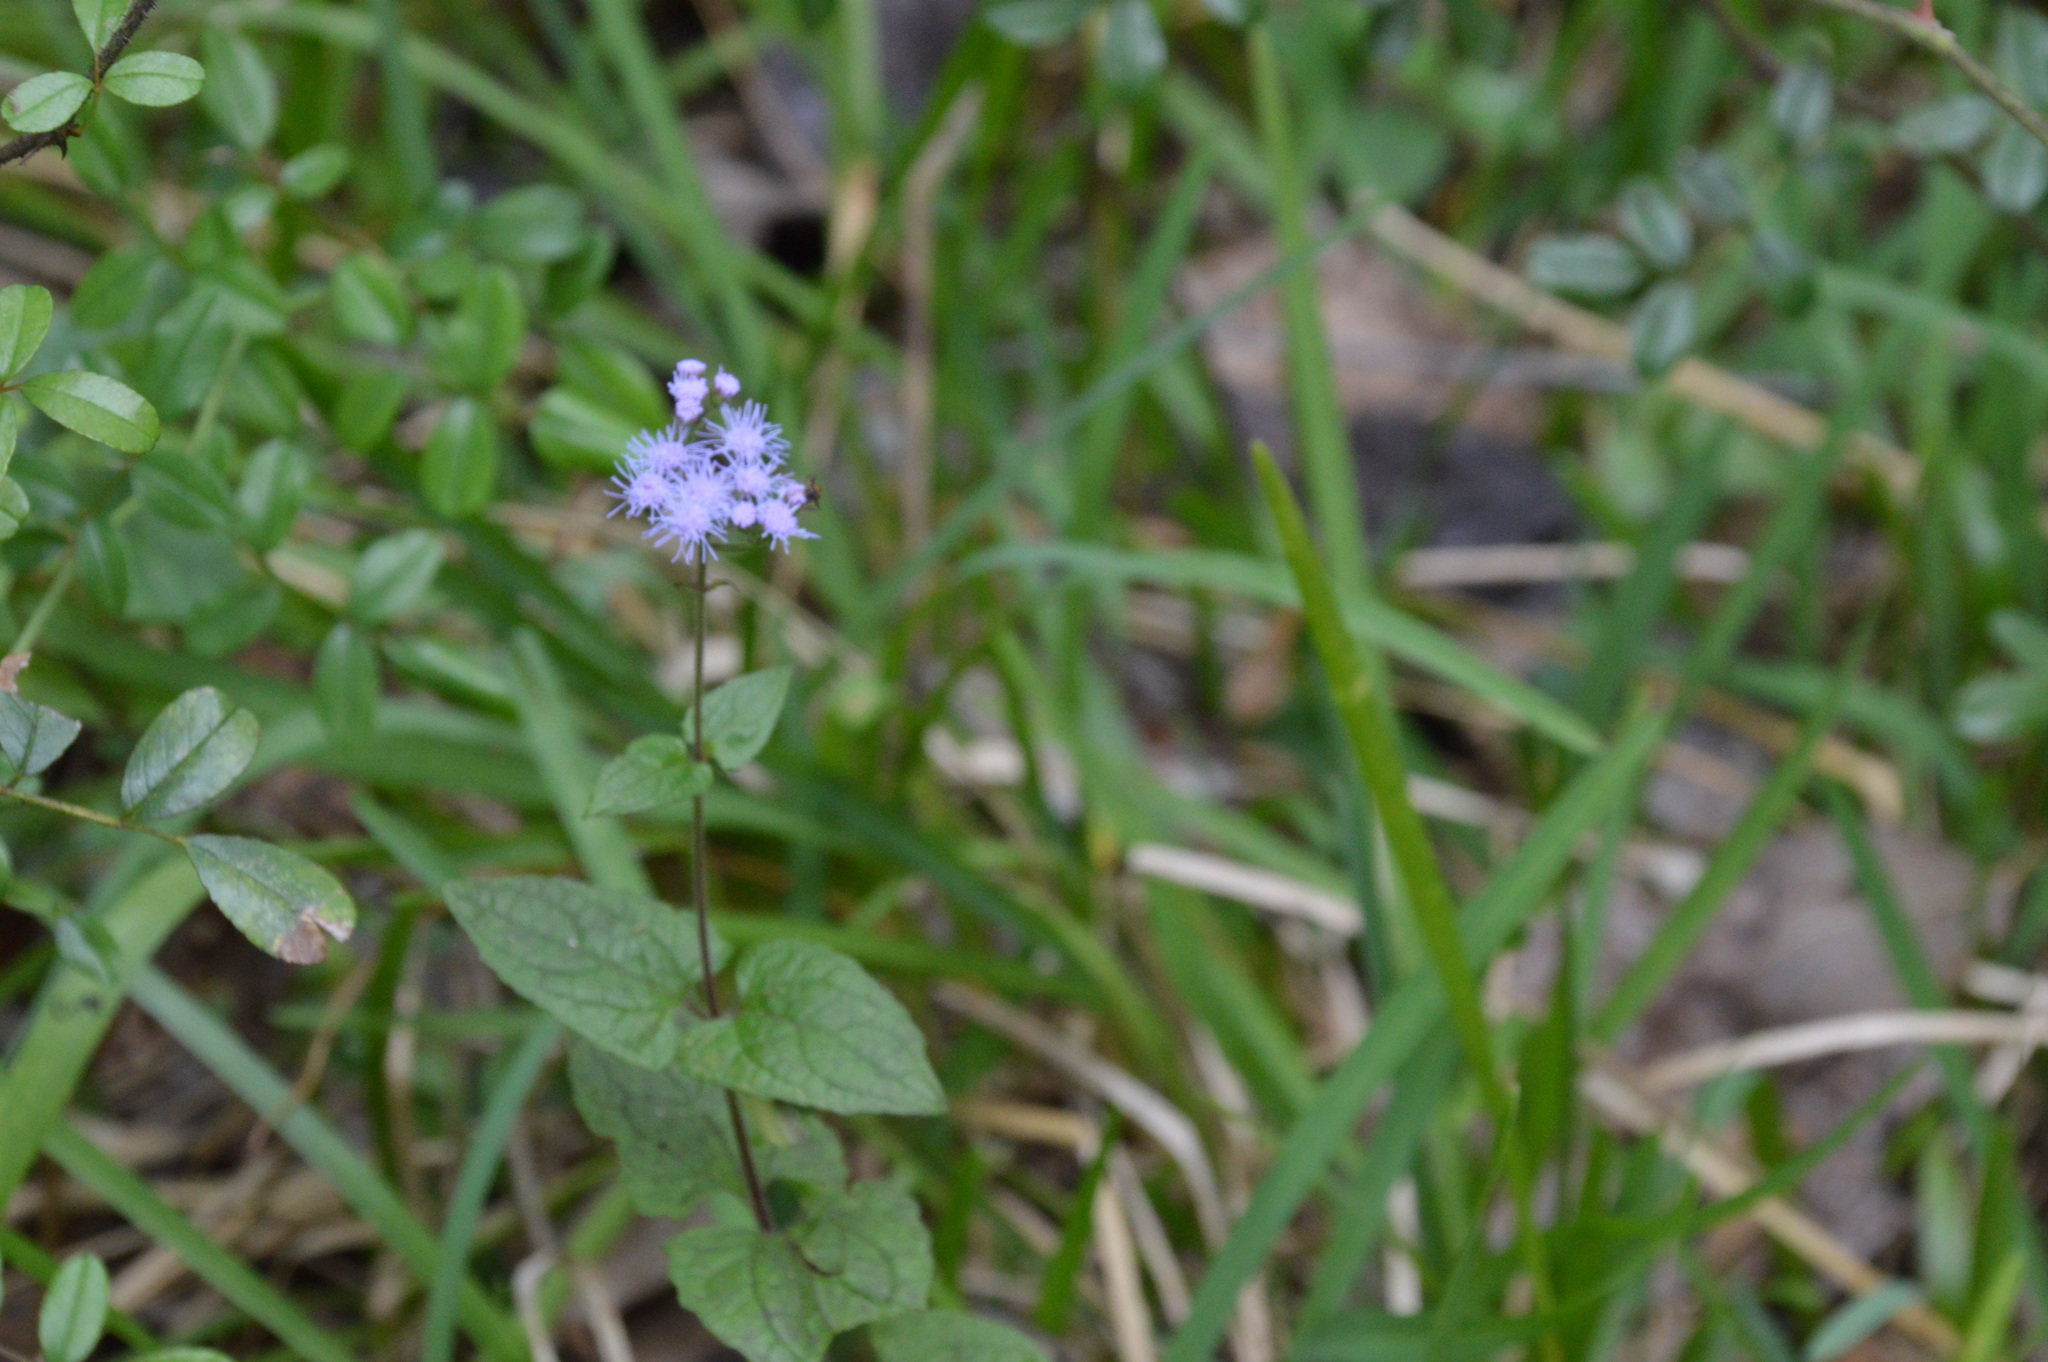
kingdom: Plantae
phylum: Tracheophyta
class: Magnoliopsida
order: Asterales
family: Asteraceae
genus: Conoclinium
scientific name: Conoclinium coelestinum
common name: Blue mistflower
